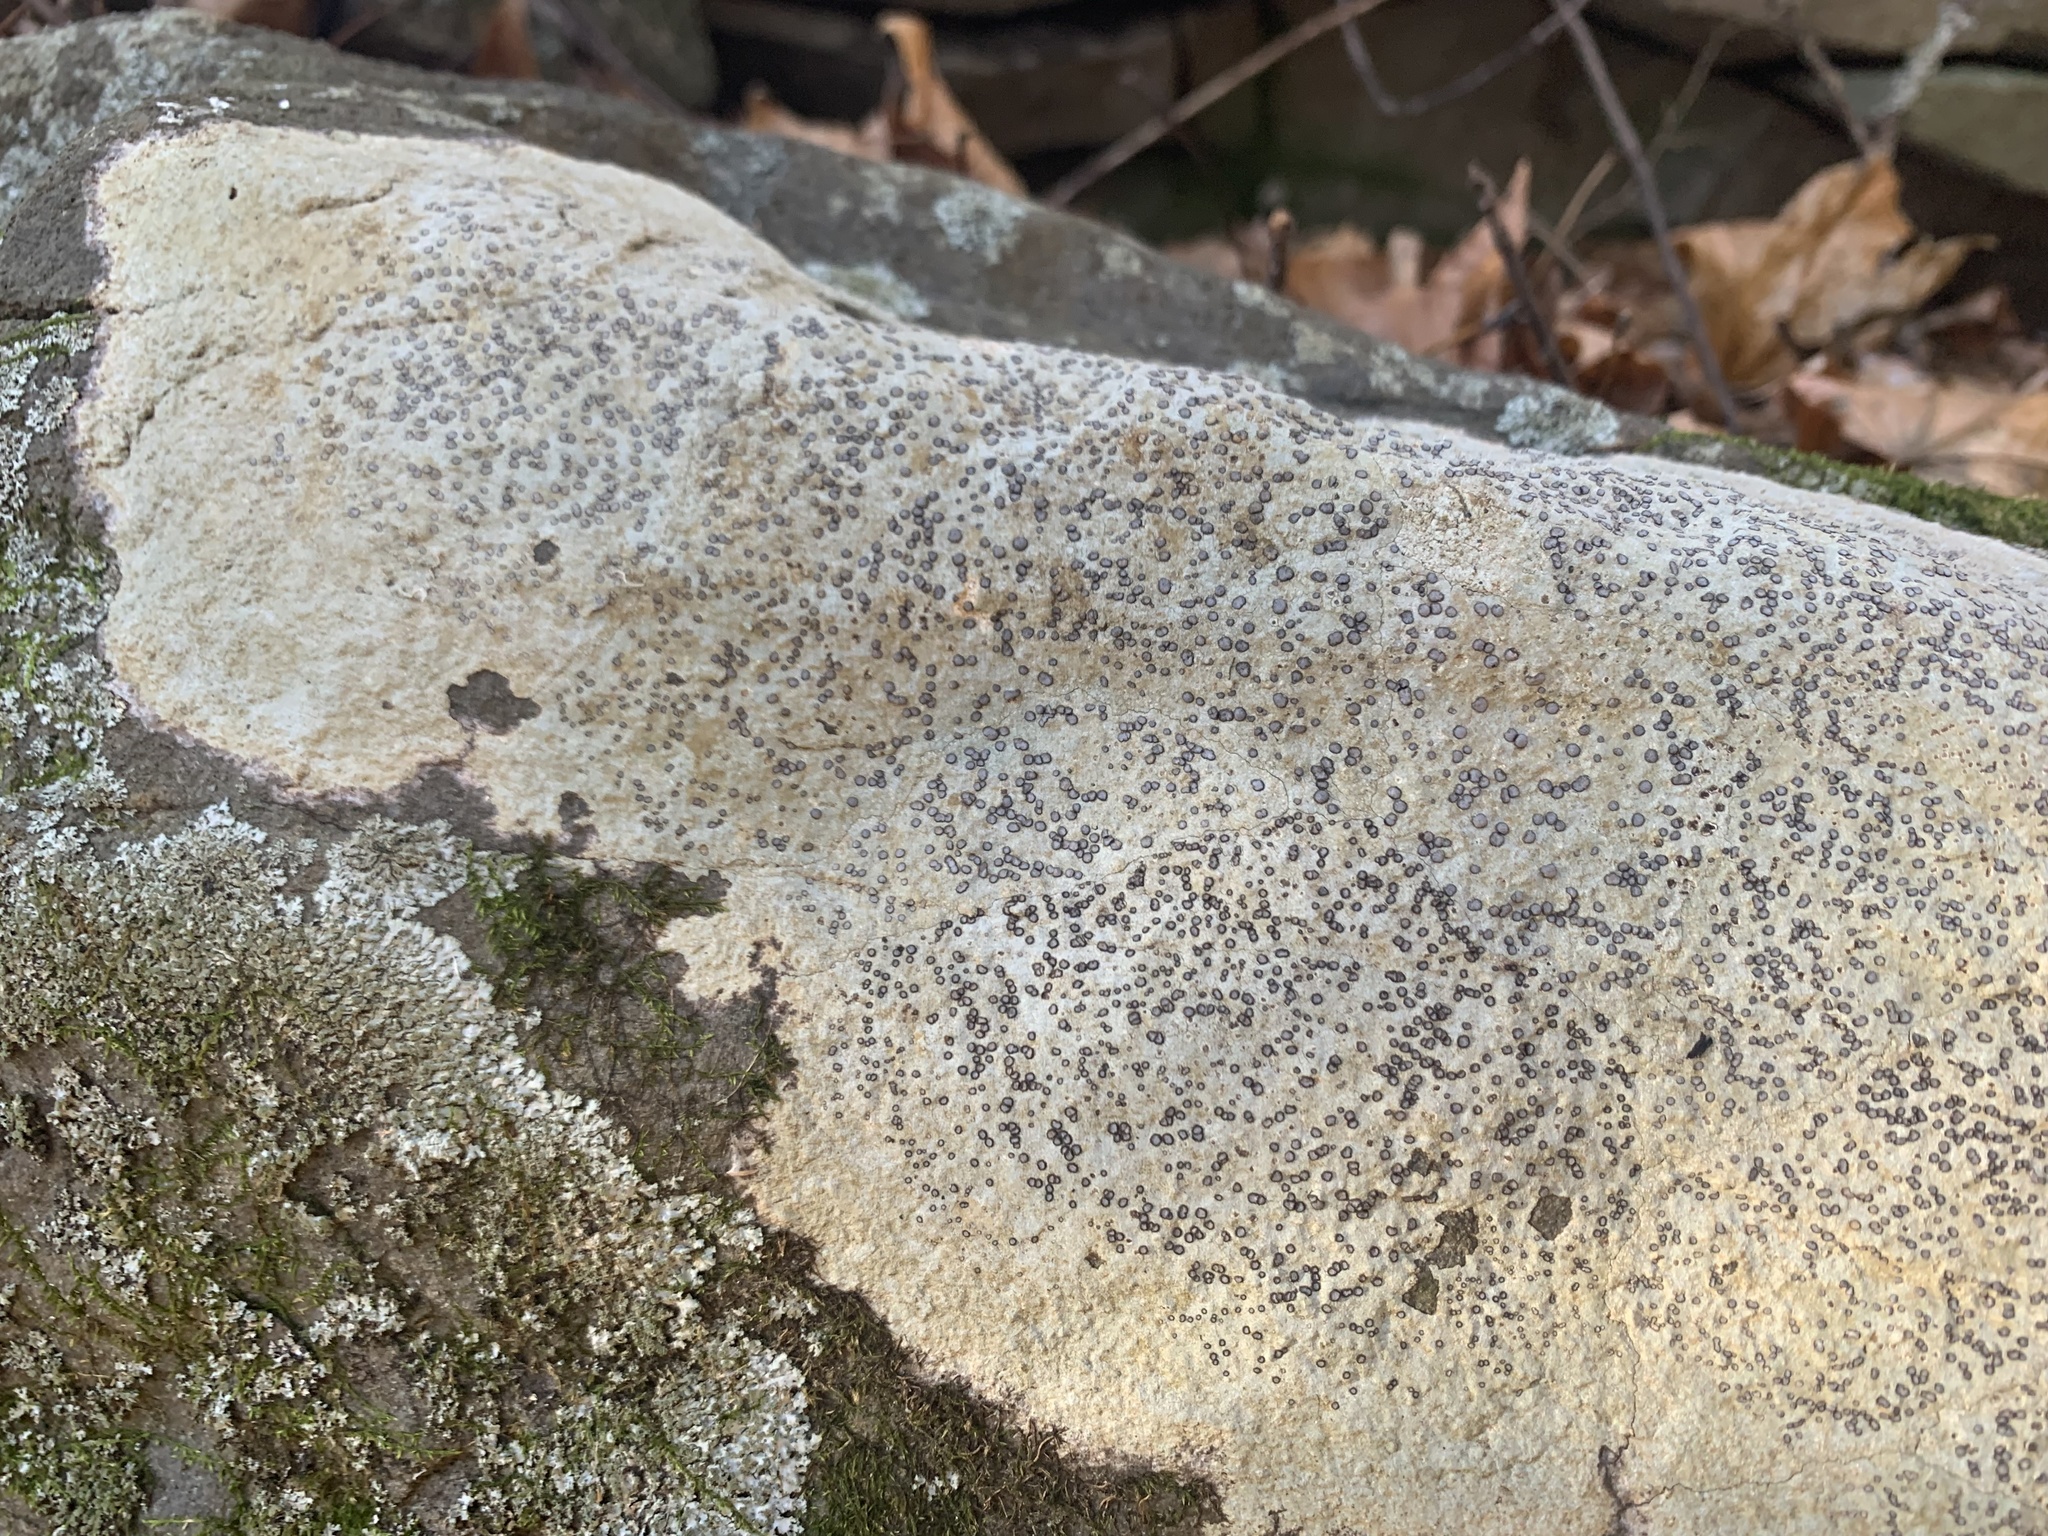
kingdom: Fungi
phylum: Ascomycota
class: Lecanoromycetes
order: Lecideales
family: Lecideaceae
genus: Porpidia
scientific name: Porpidia albocaerulescens
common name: Smokey-eyed boulder lichen
